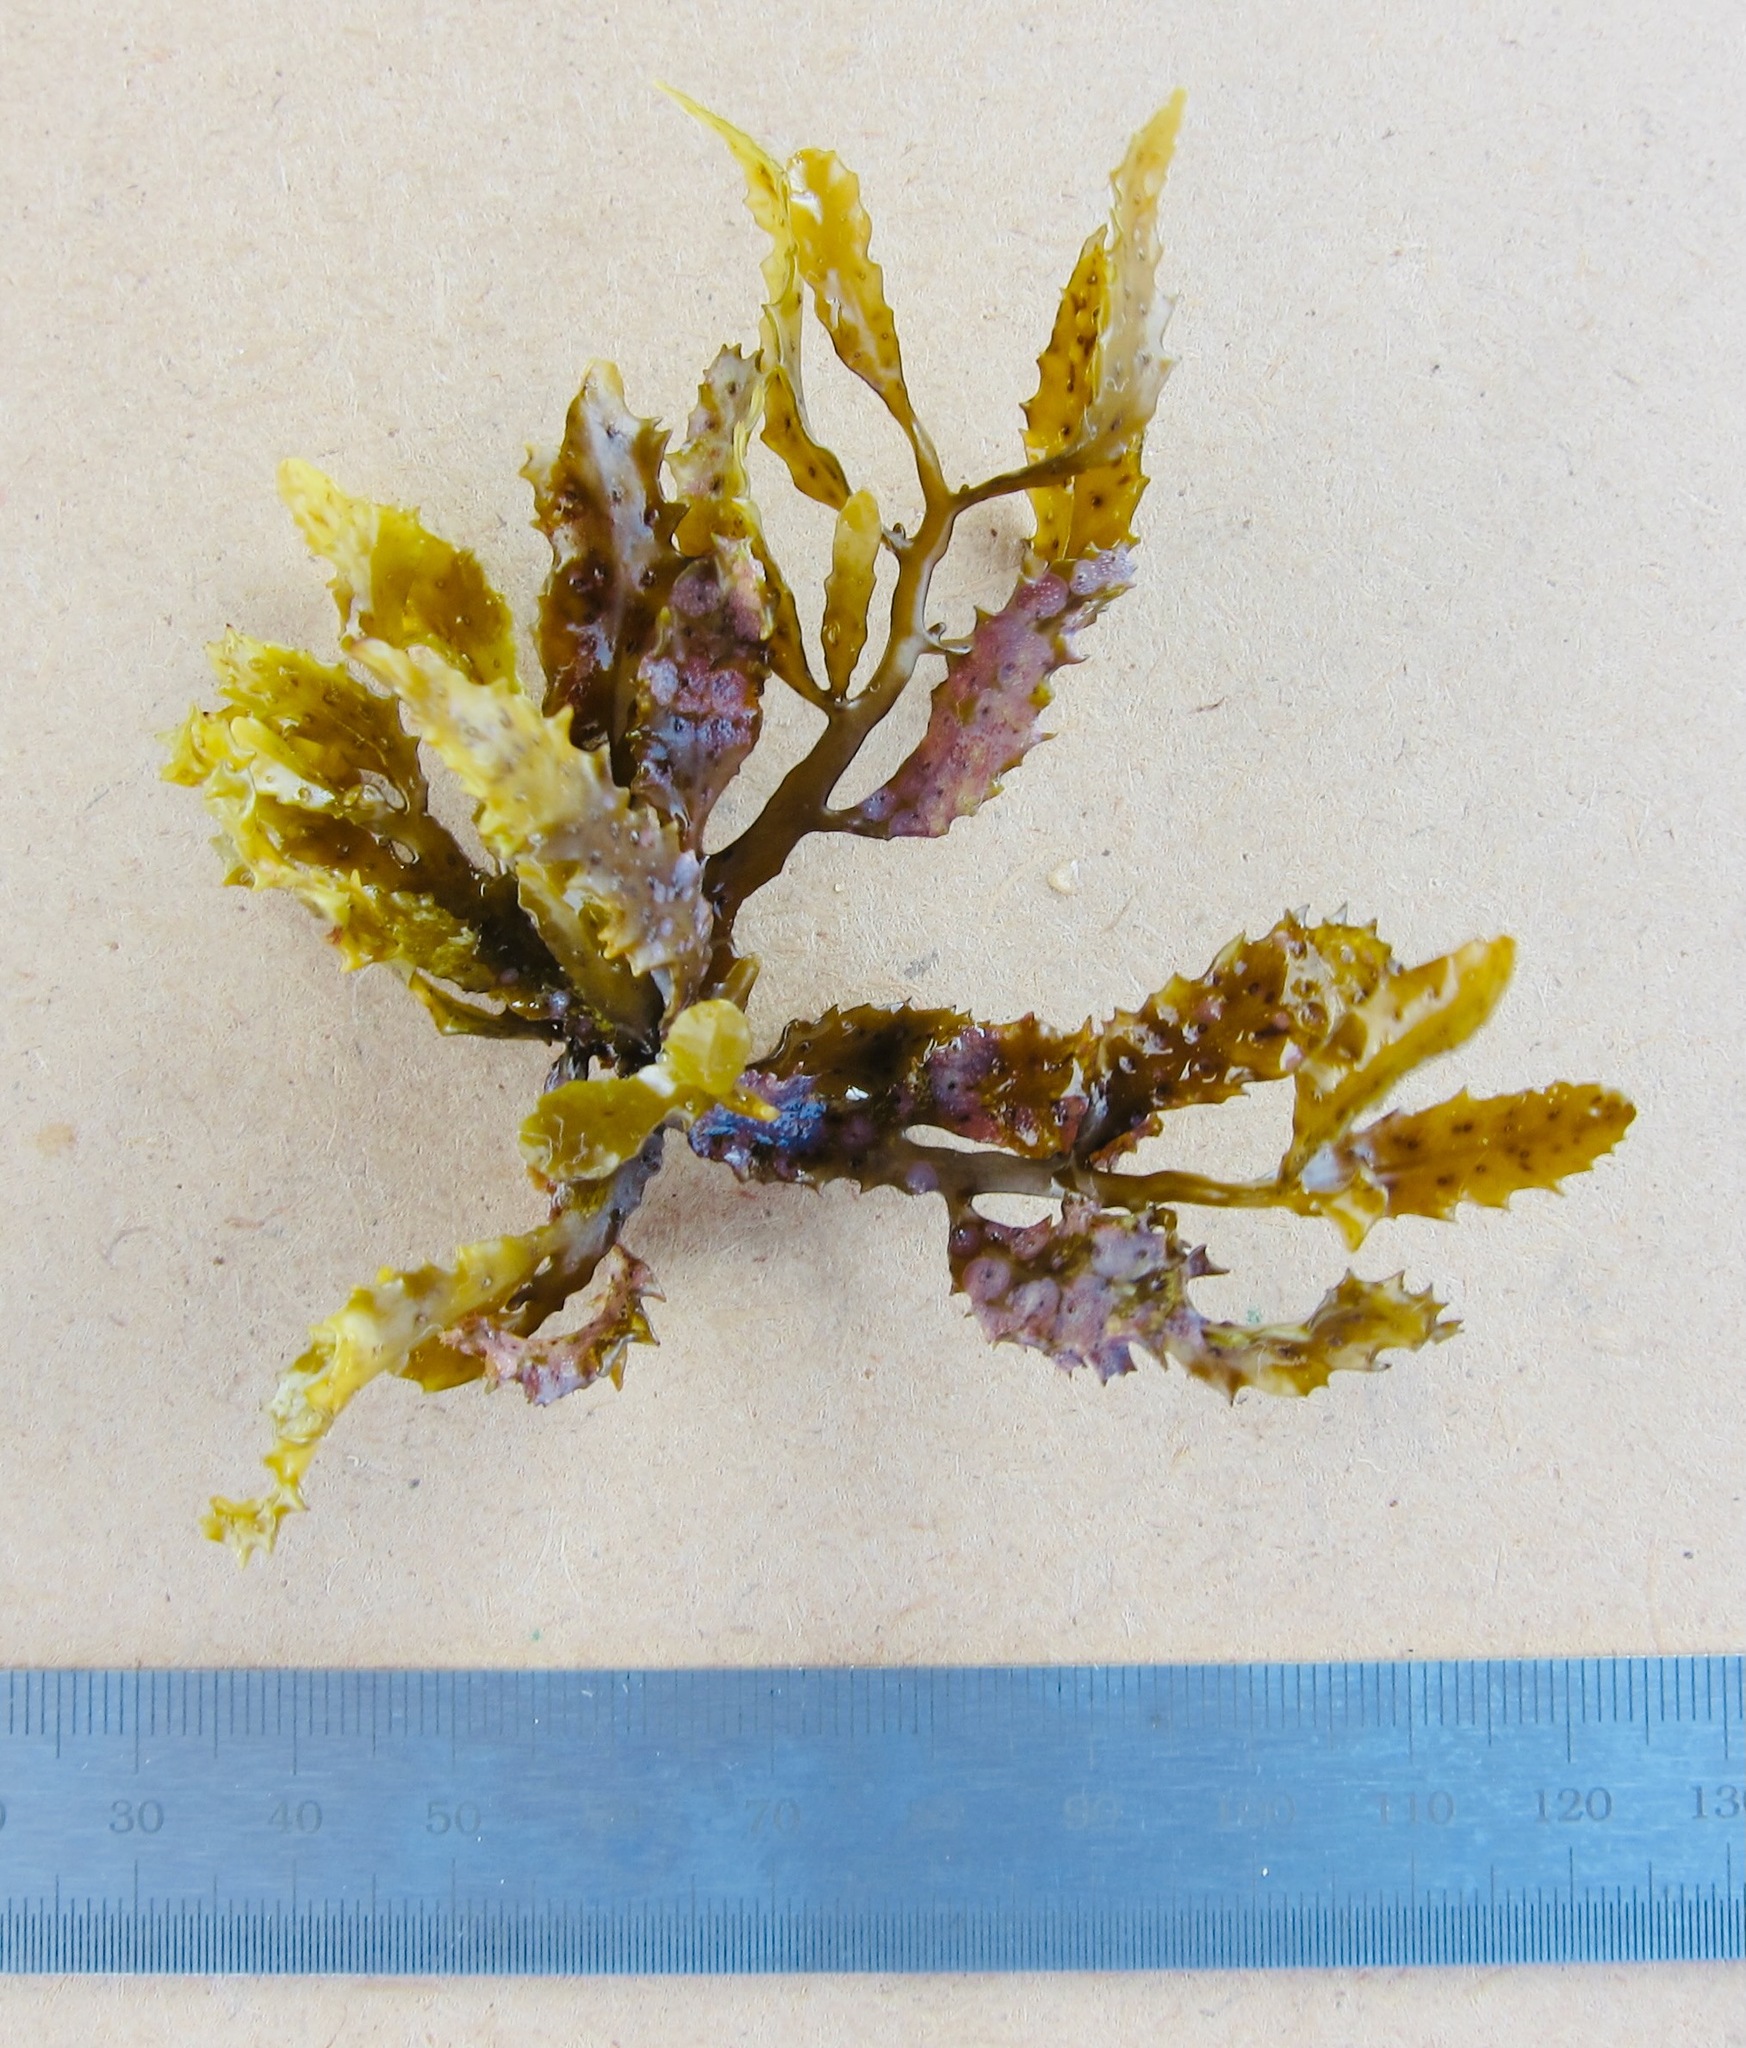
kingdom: Chromista
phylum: Ochrophyta
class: Phaeophyceae
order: Fucales
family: Sargassaceae
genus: Sargassum
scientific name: Sargassum aquifolium
